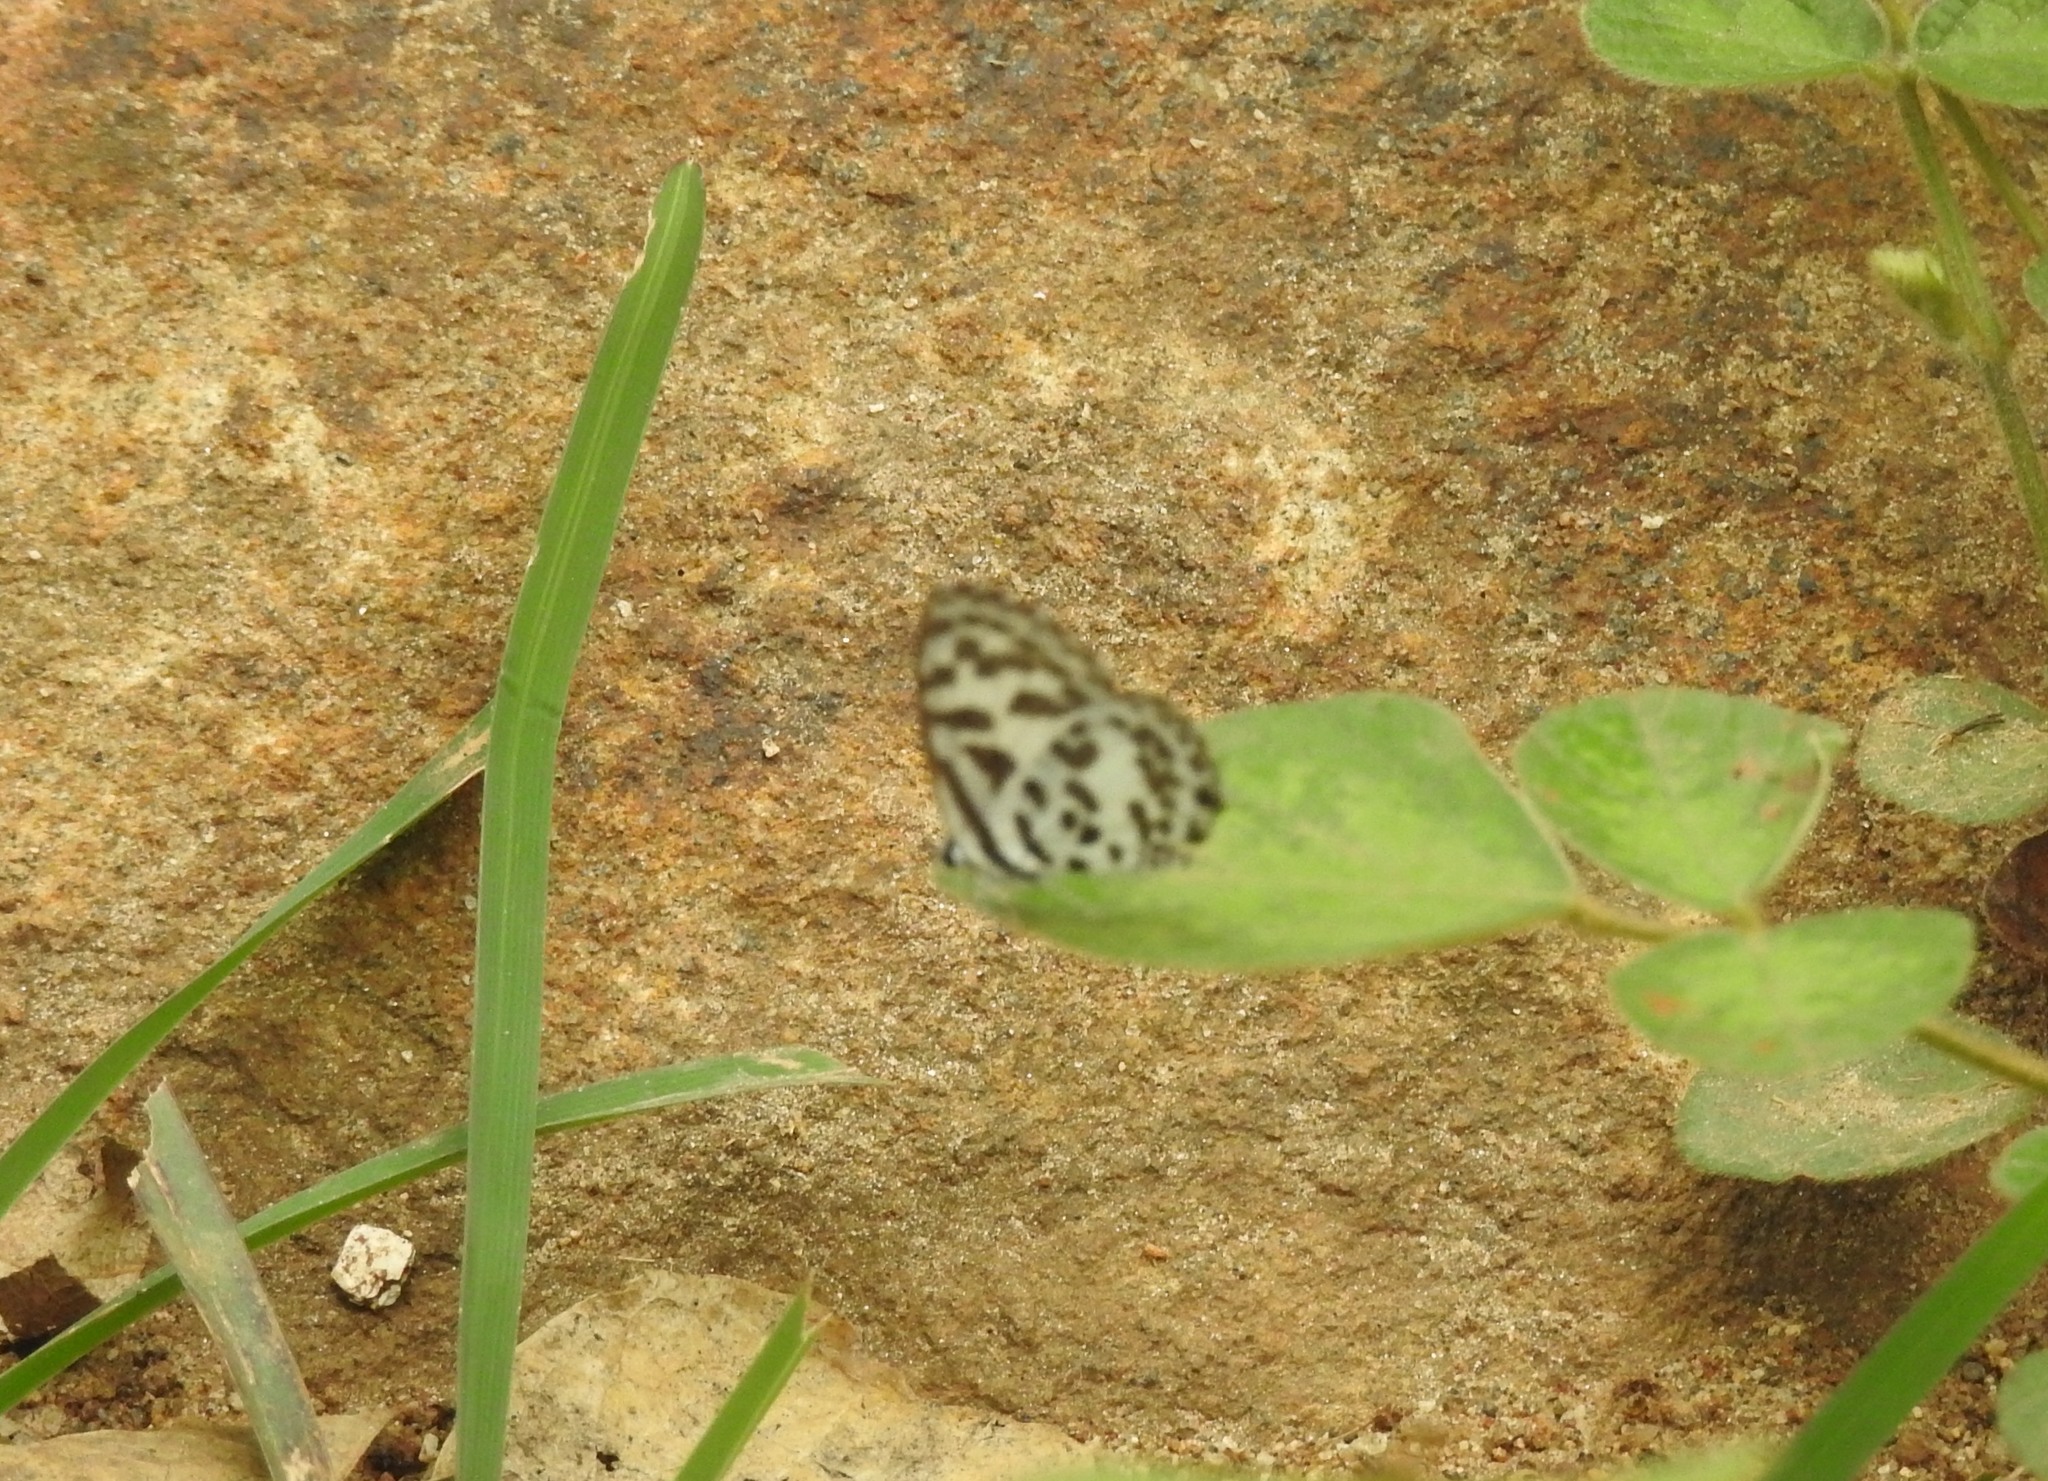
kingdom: Animalia
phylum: Arthropoda
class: Insecta
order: Lepidoptera
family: Lycaenidae
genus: Castalius
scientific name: Castalius rosimon
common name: Common pierrot
